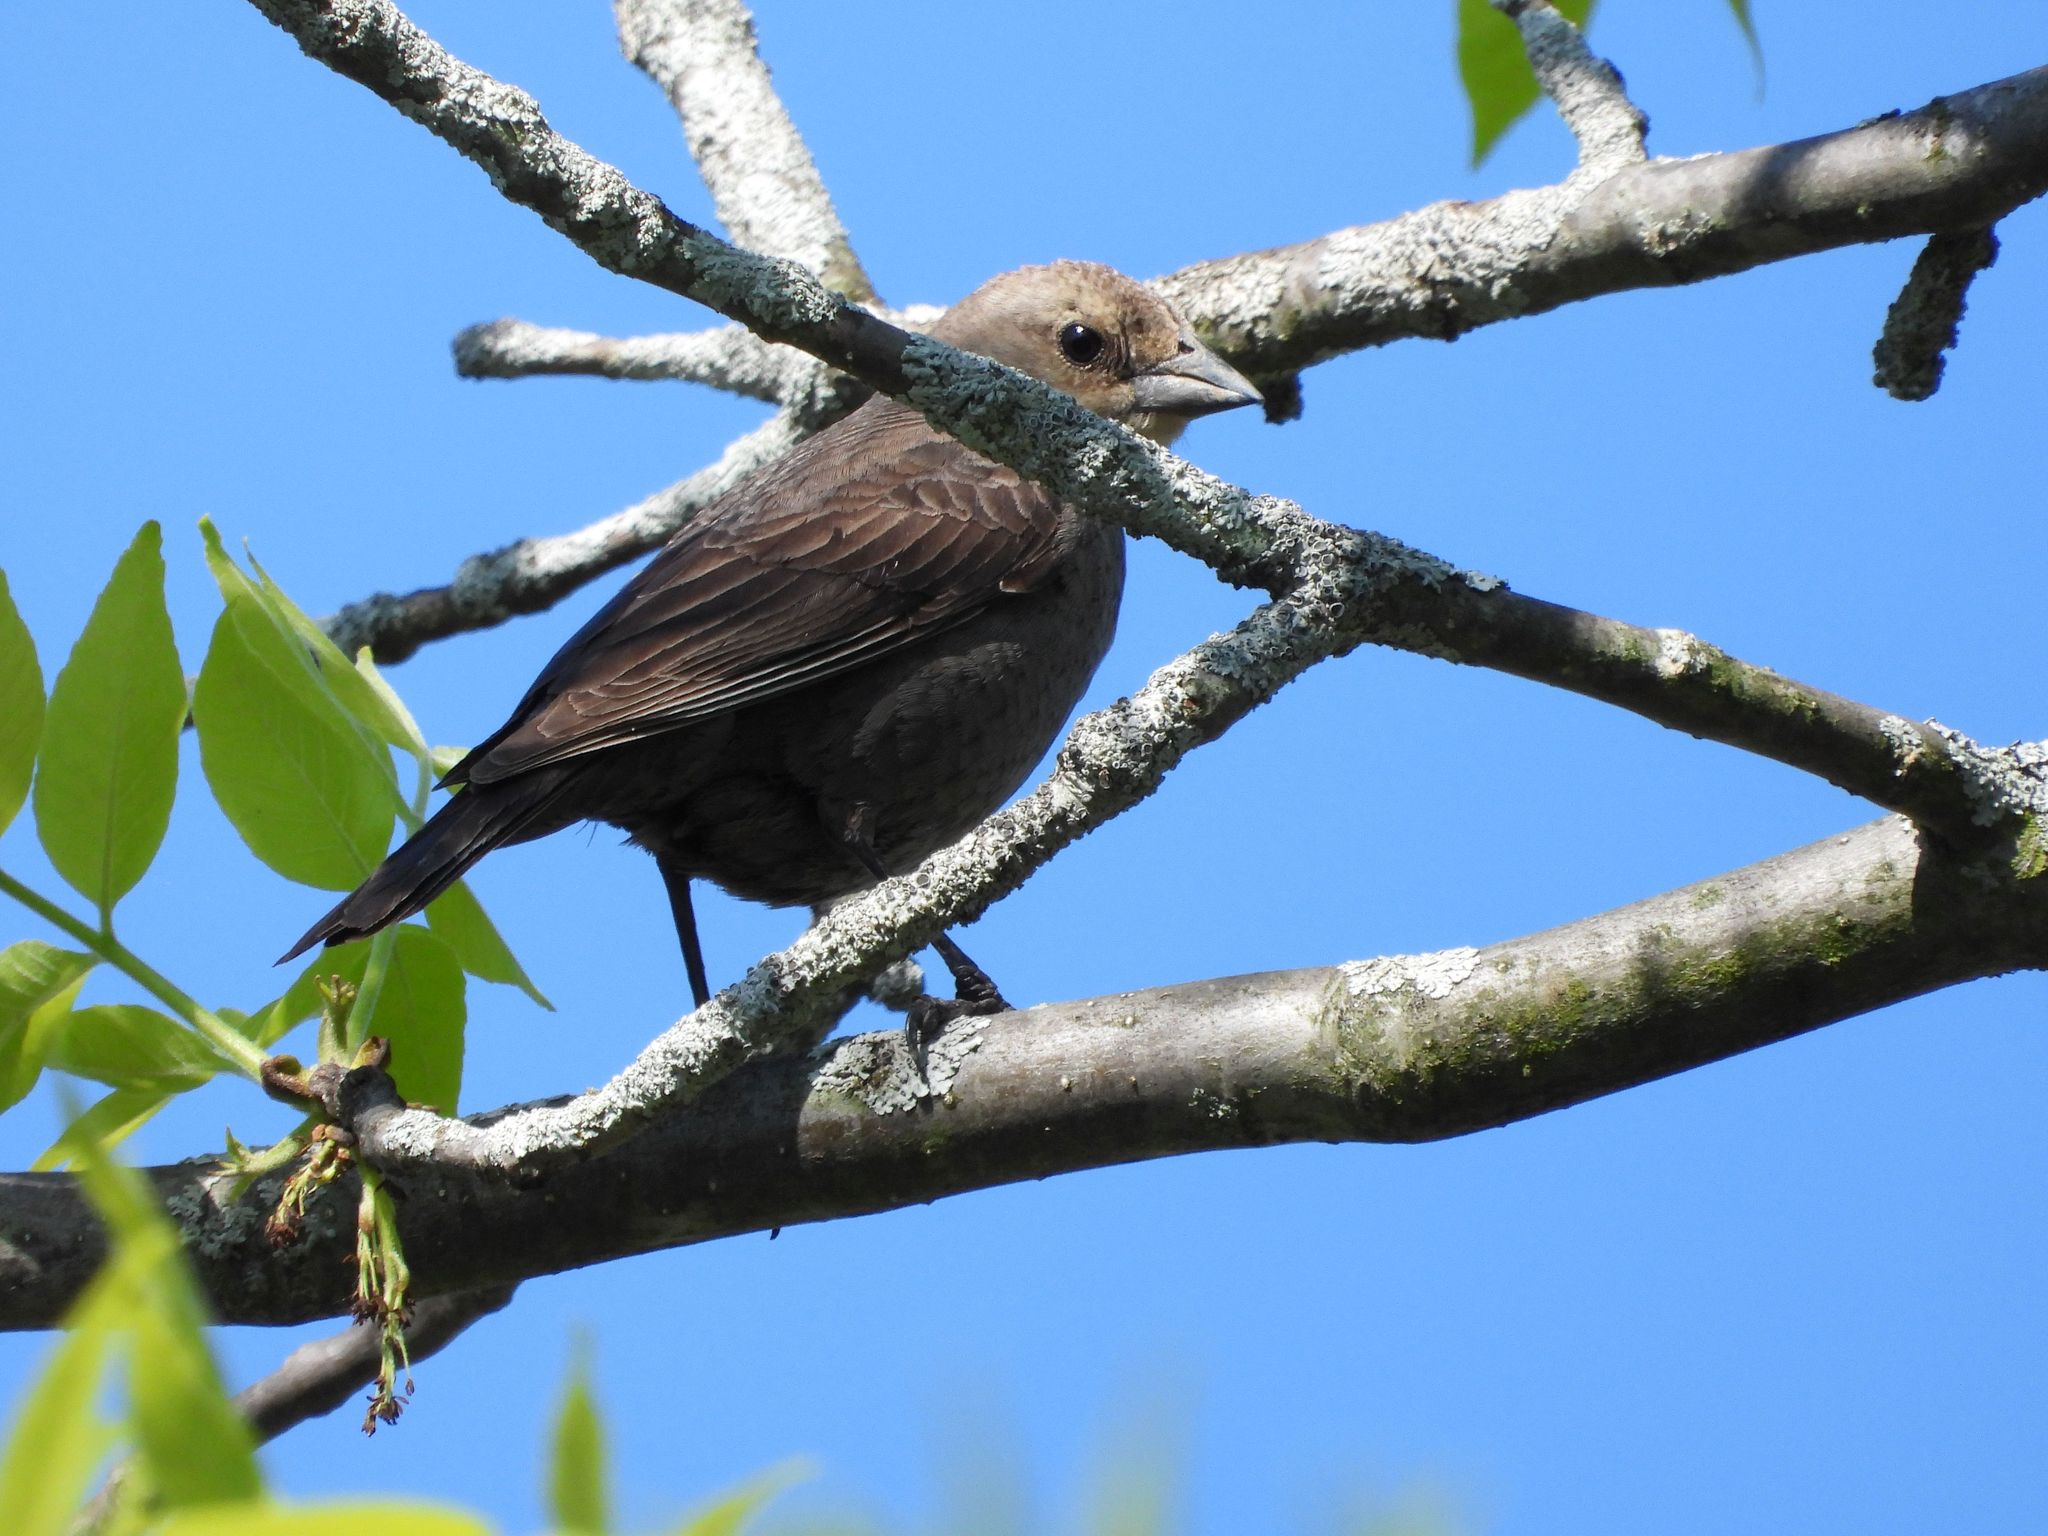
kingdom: Animalia
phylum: Chordata
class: Aves
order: Passeriformes
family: Icteridae
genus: Molothrus
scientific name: Molothrus ater
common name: Brown-headed cowbird
